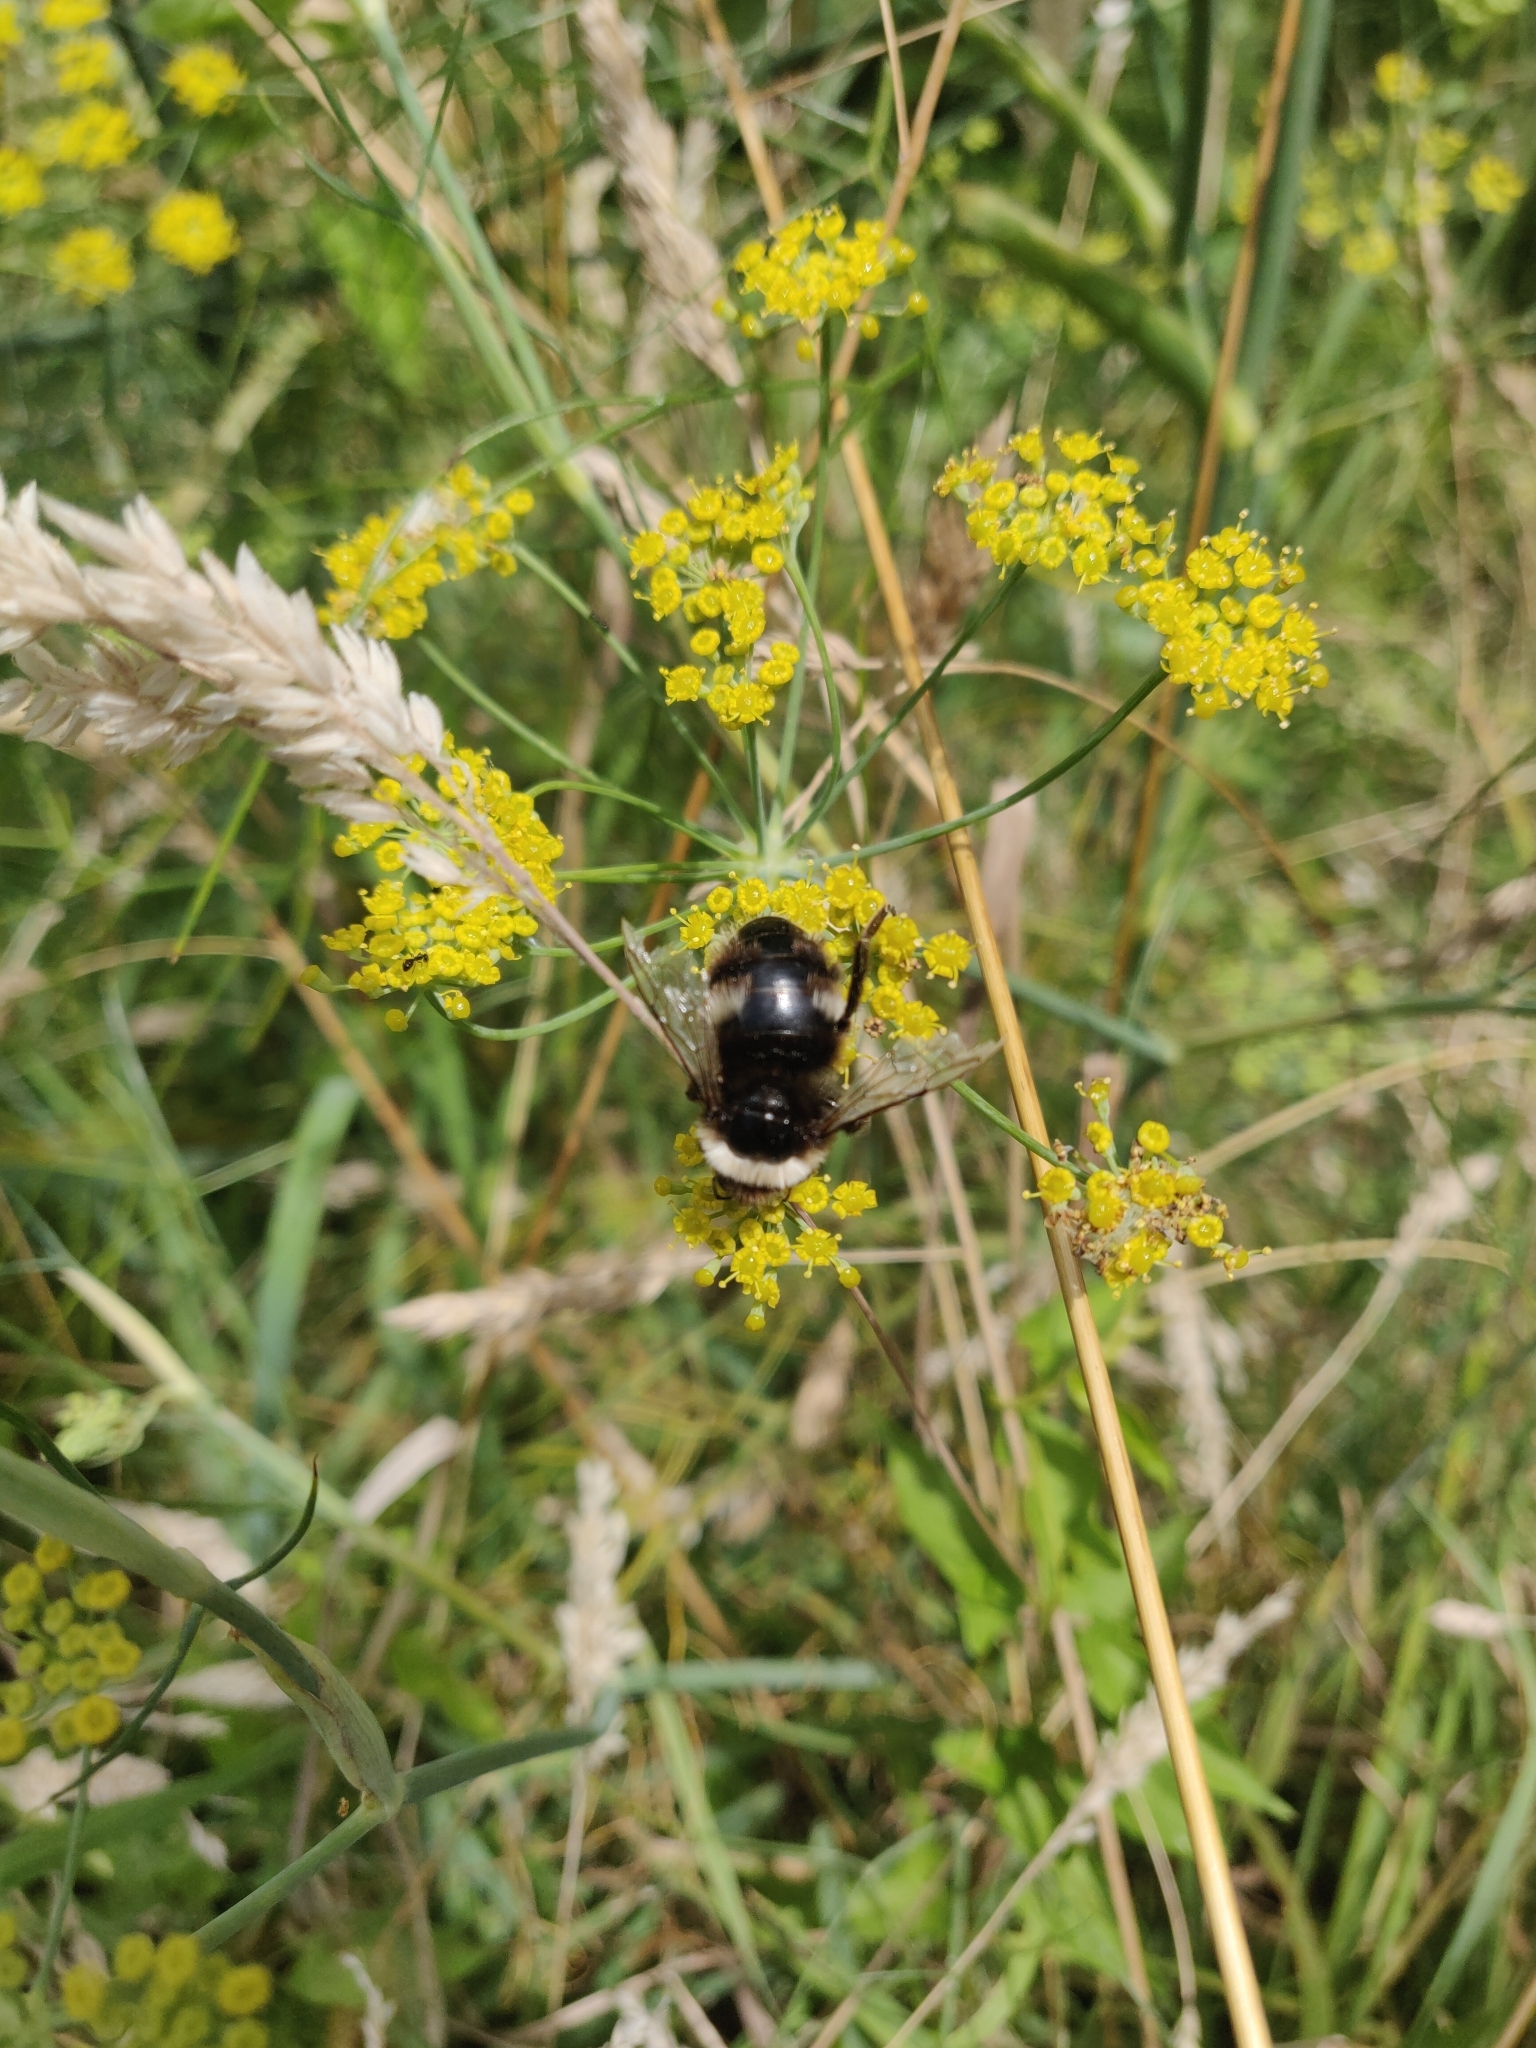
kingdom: Animalia
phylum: Arthropoda
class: Insecta
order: Hymenoptera
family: Apidae
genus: Bombus
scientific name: Bombus terrestris
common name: Buff-tailed bumblebee
